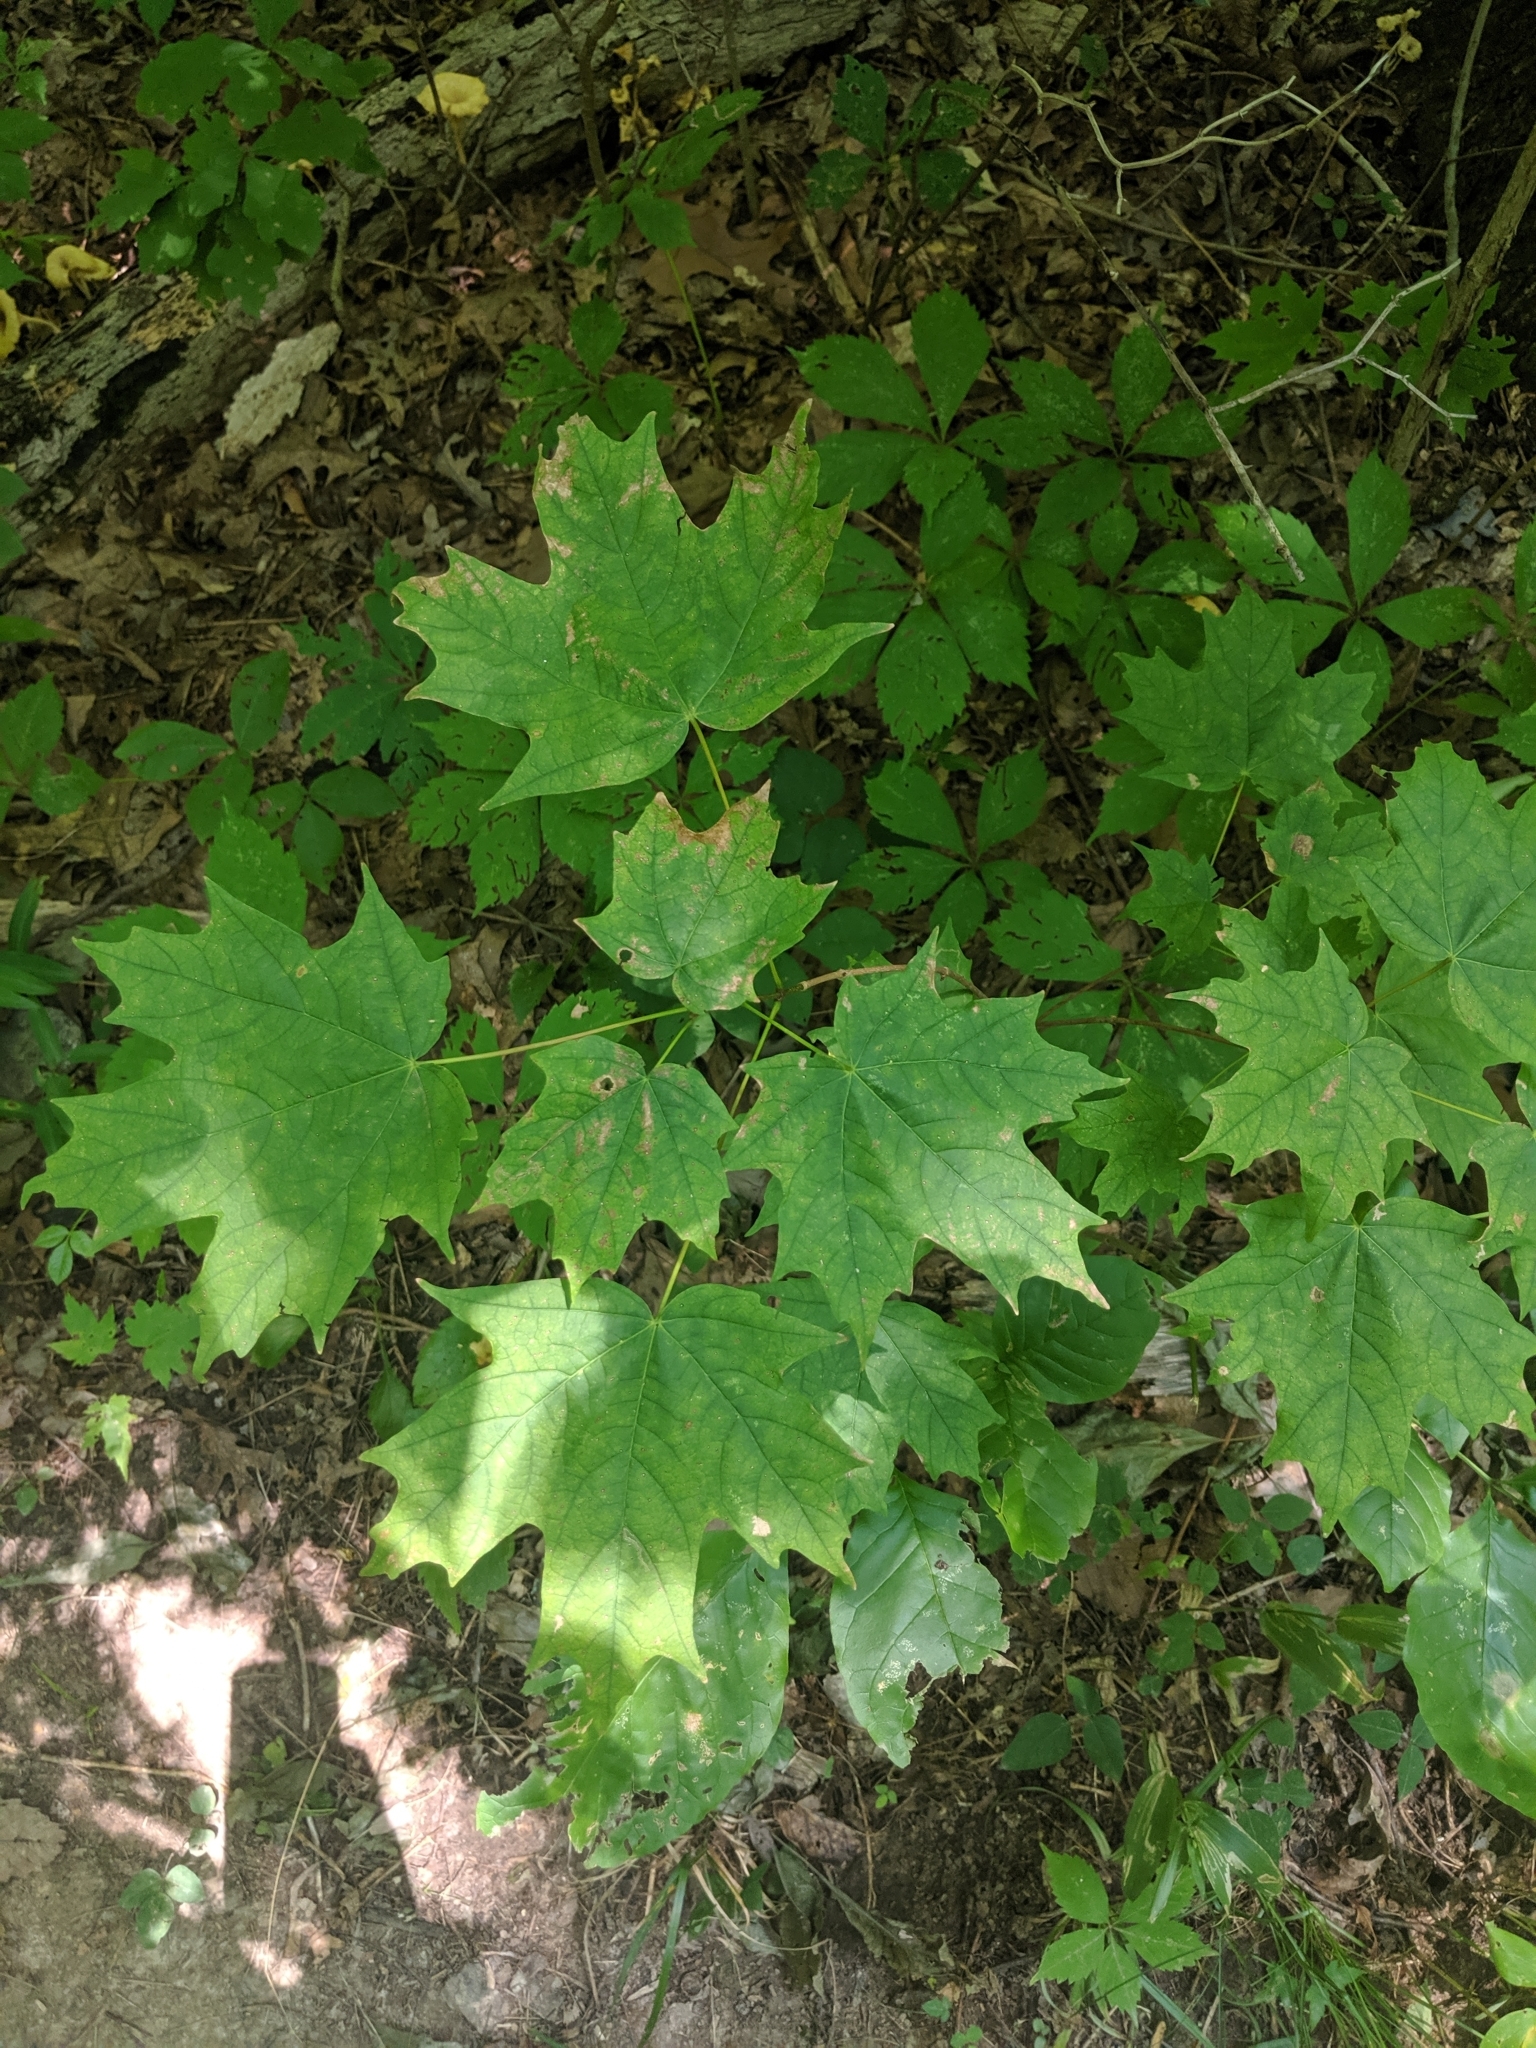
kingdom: Plantae
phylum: Tracheophyta
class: Magnoliopsida
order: Sapindales
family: Sapindaceae
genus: Acer
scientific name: Acer saccharum
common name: Sugar maple
